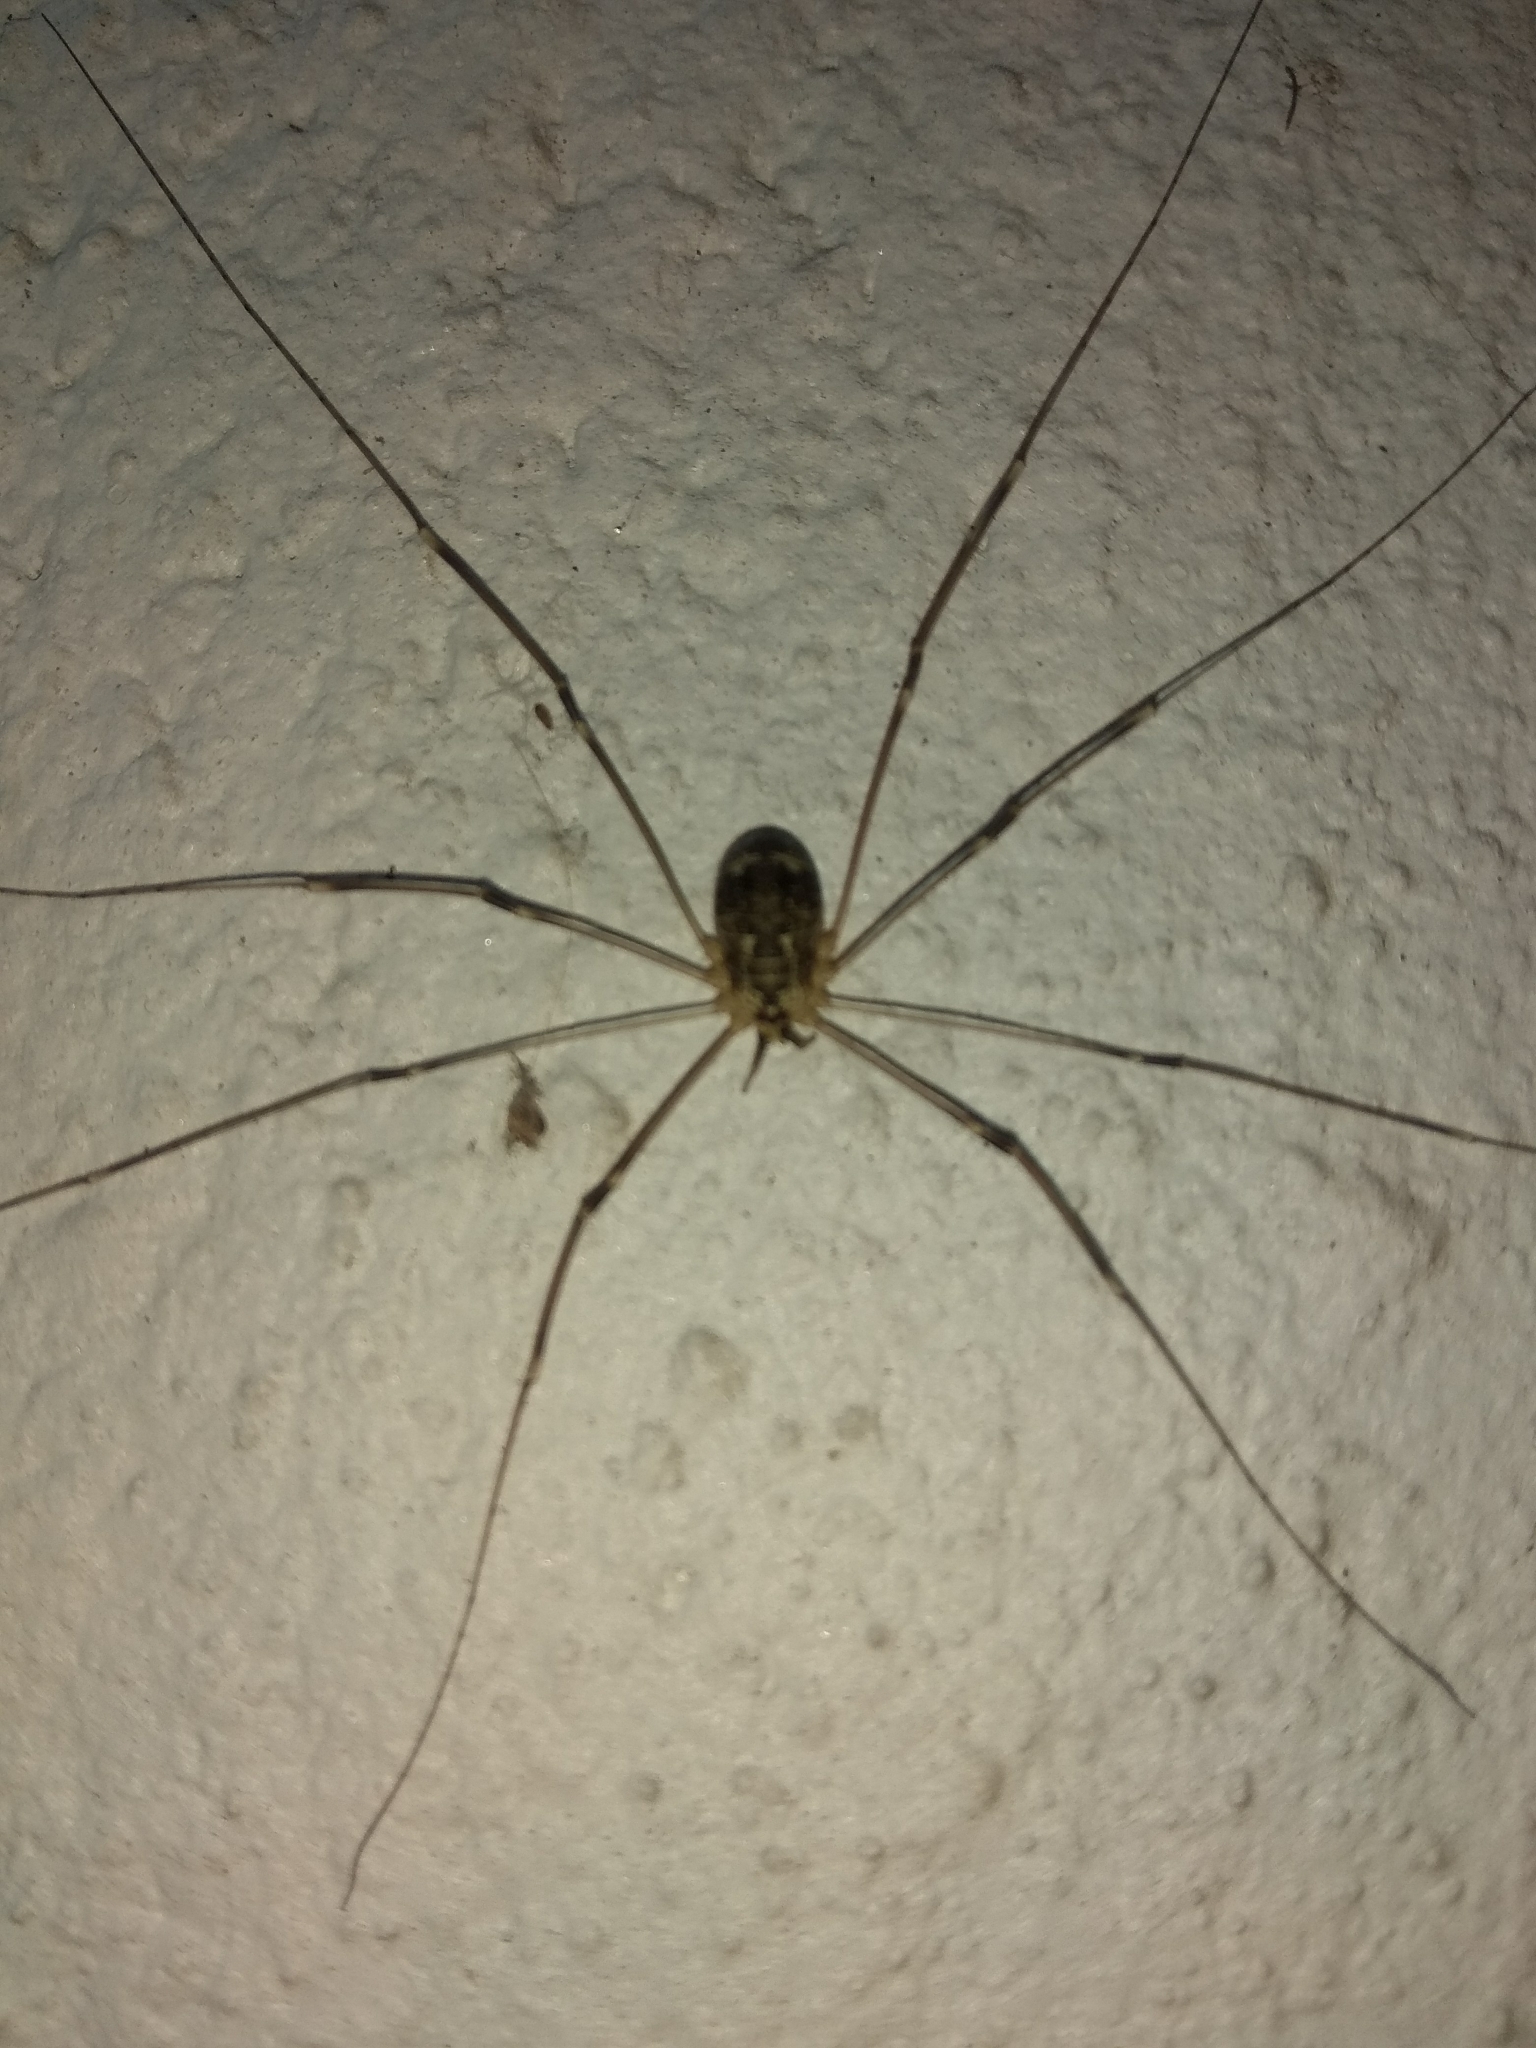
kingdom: Animalia
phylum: Arthropoda
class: Arachnida
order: Opiliones
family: Sclerosomatidae
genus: Leiobunum
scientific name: Leiobunum gracile
